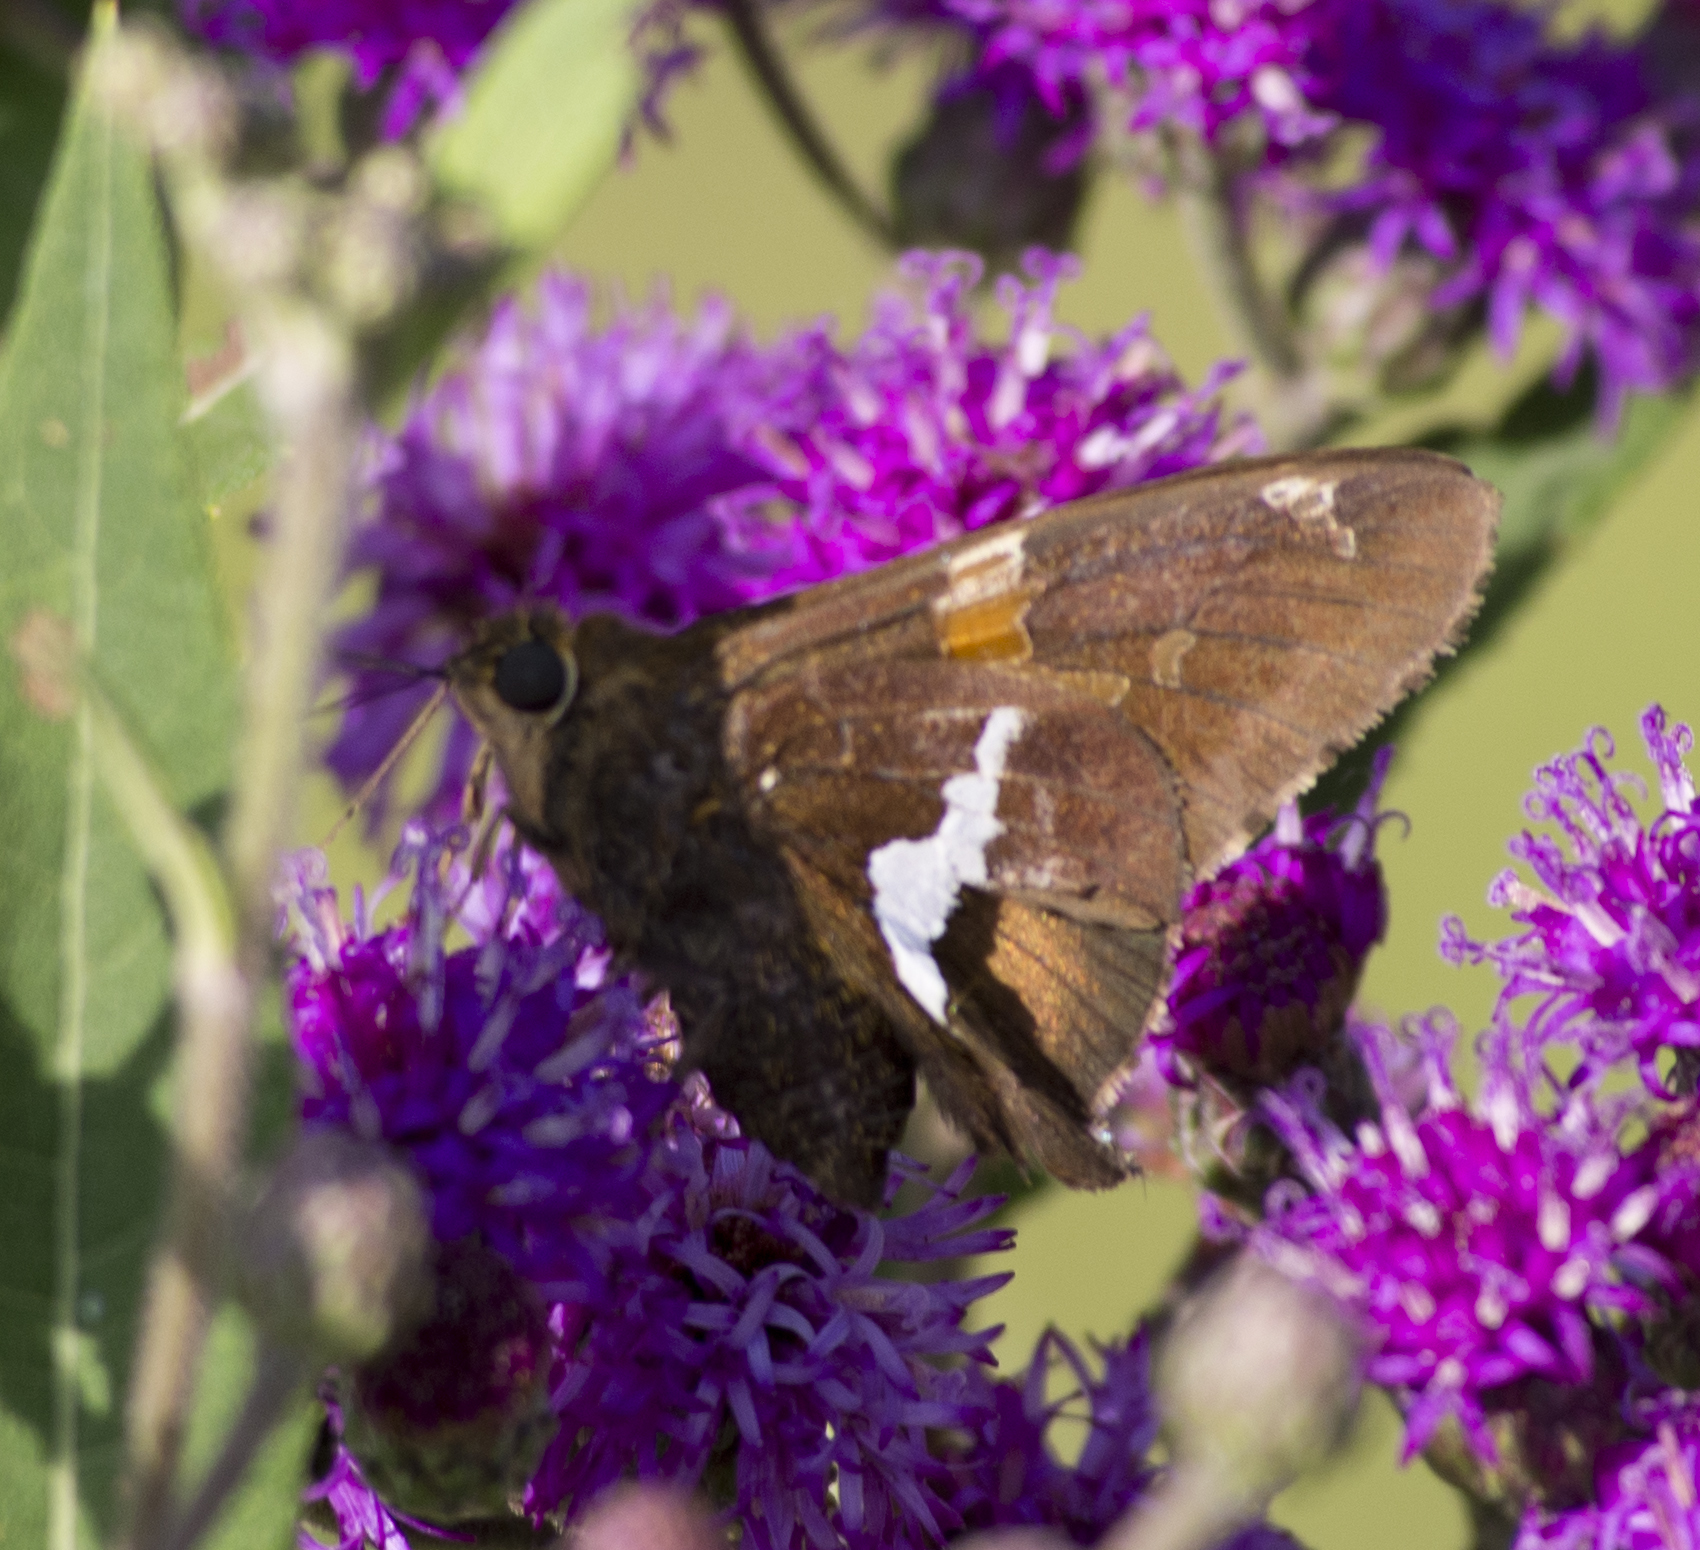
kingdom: Animalia
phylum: Arthropoda
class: Insecta
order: Lepidoptera
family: Hesperiidae
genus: Epargyreus
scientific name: Epargyreus clarus
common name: Silver-spotted skipper
